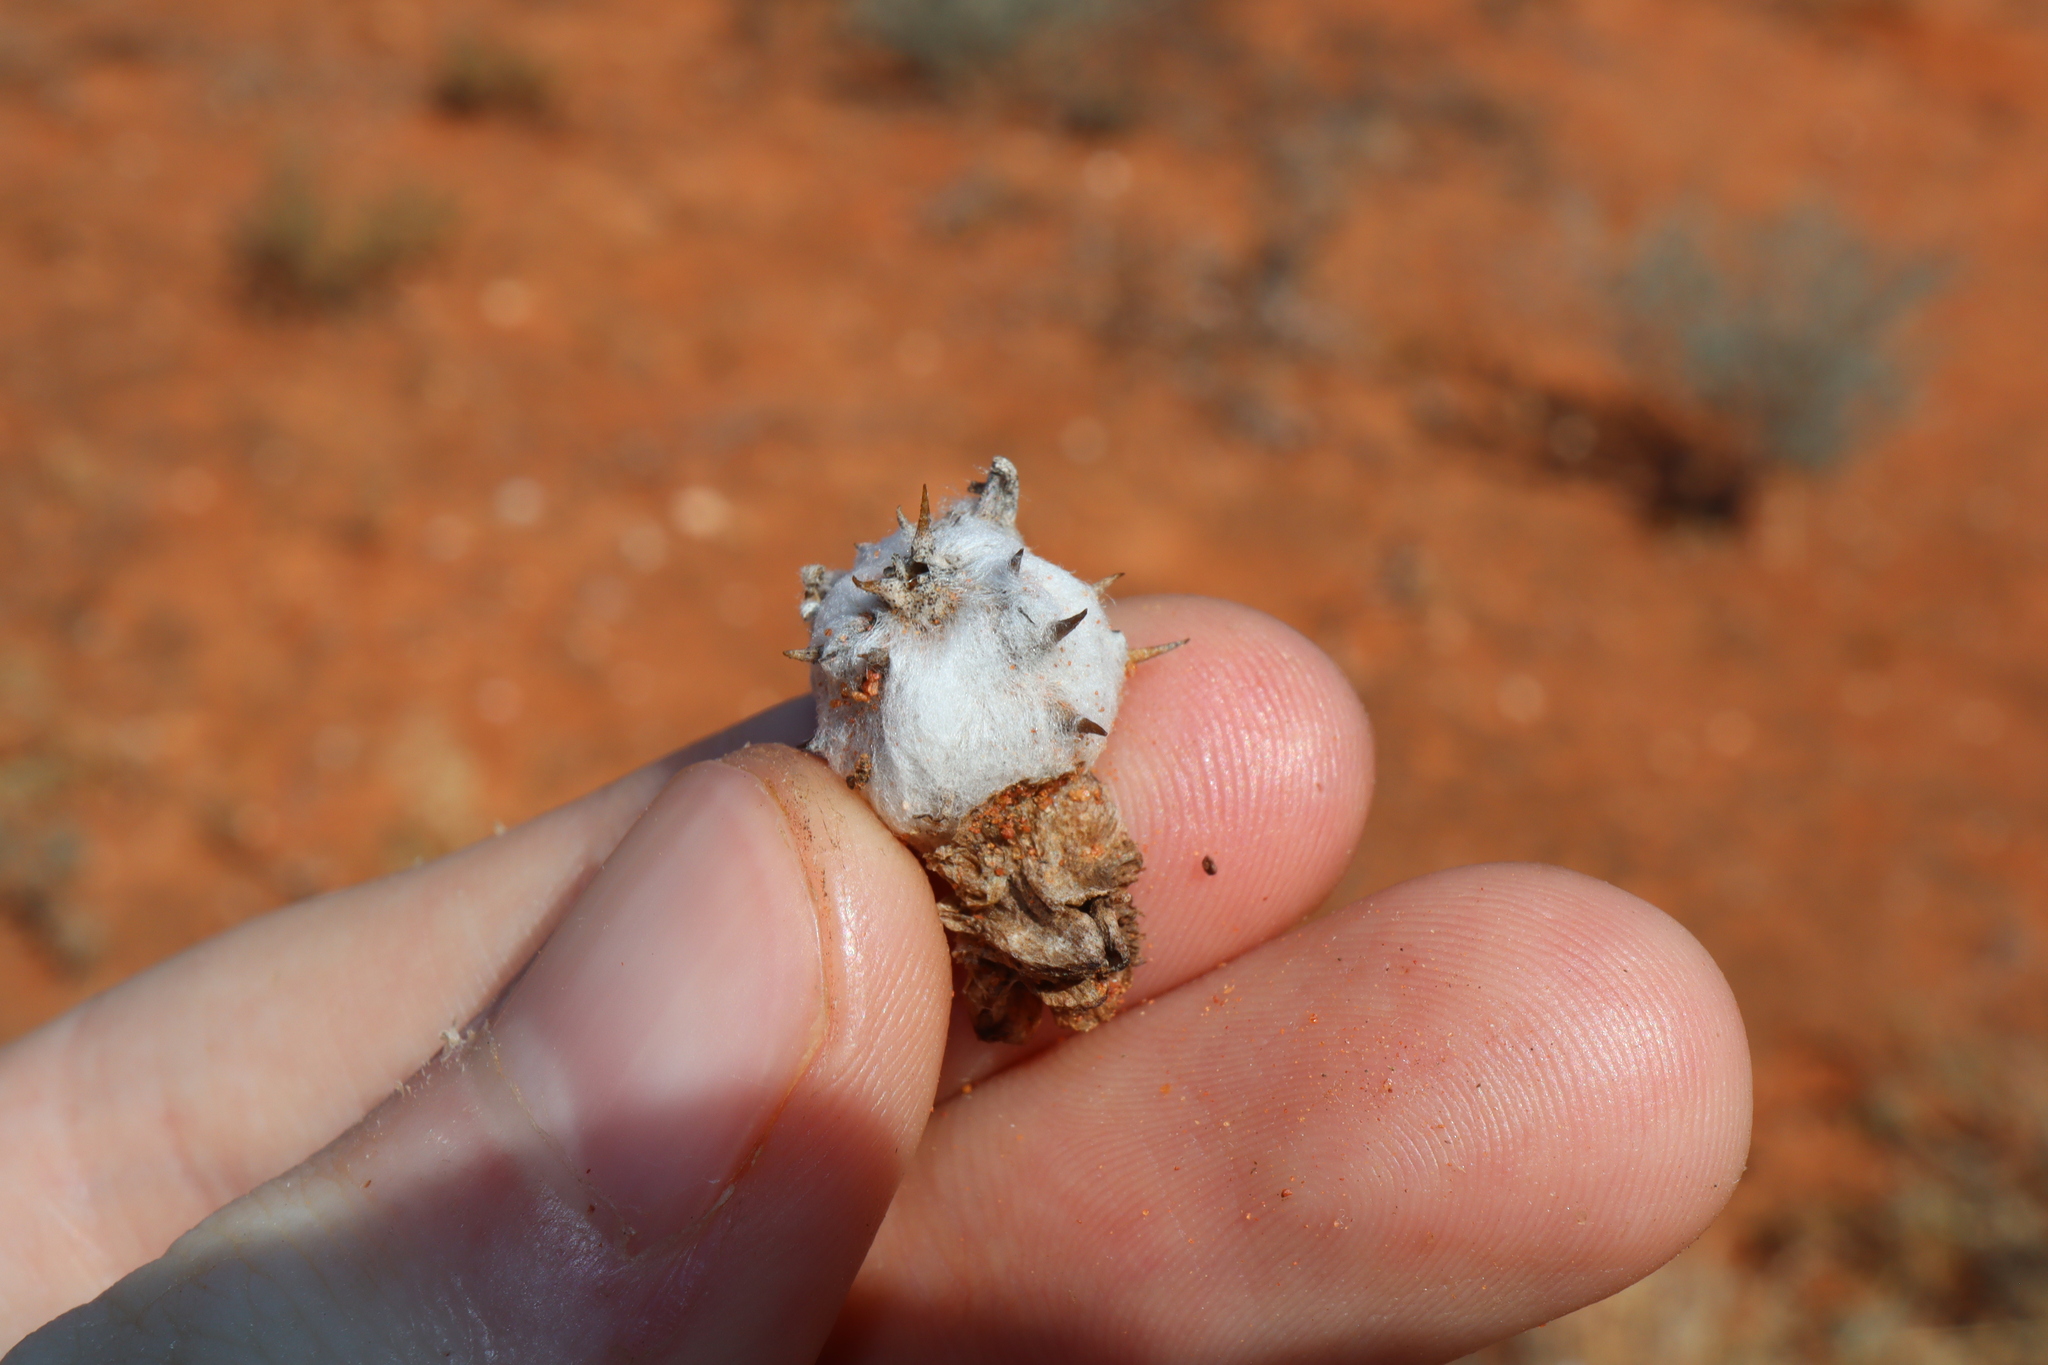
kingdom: Plantae
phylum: Tracheophyta
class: Magnoliopsida
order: Caryophyllales
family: Amaranthaceae
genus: Dissocarpus
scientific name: Dissocarpus paradoxus
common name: Bur-saltbush
